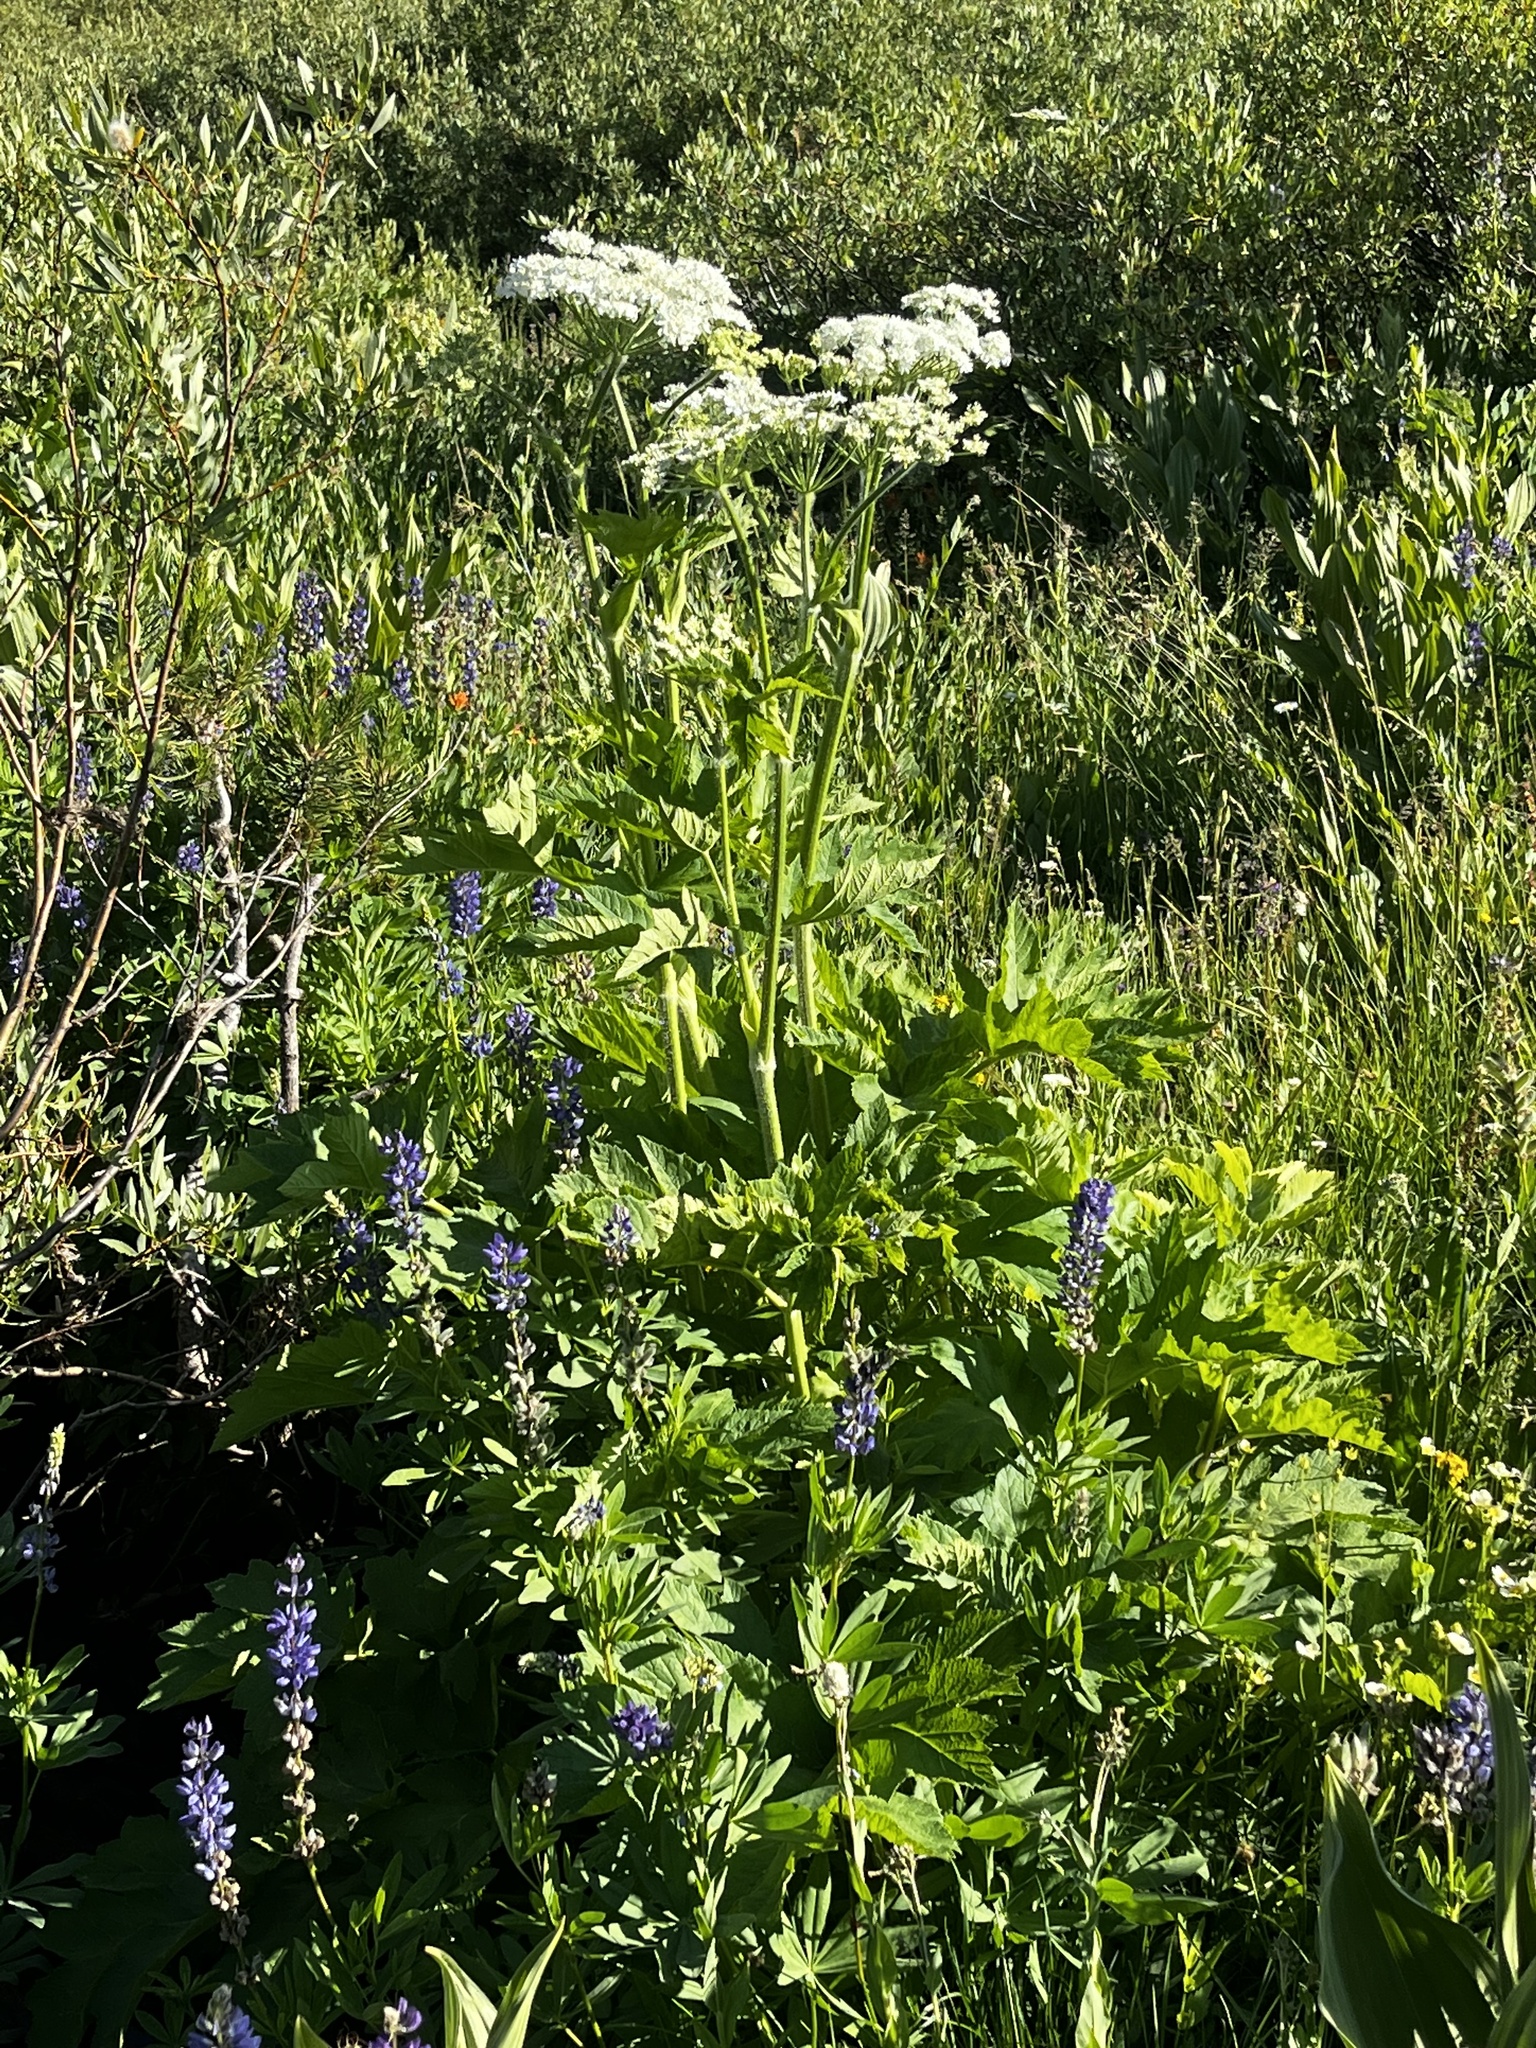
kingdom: Plantae
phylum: Tracheophyta
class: Magnoliopsida
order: Apiales
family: Apiaceae
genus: Heracleum
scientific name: Heracleum maximum
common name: American cow parsnip
